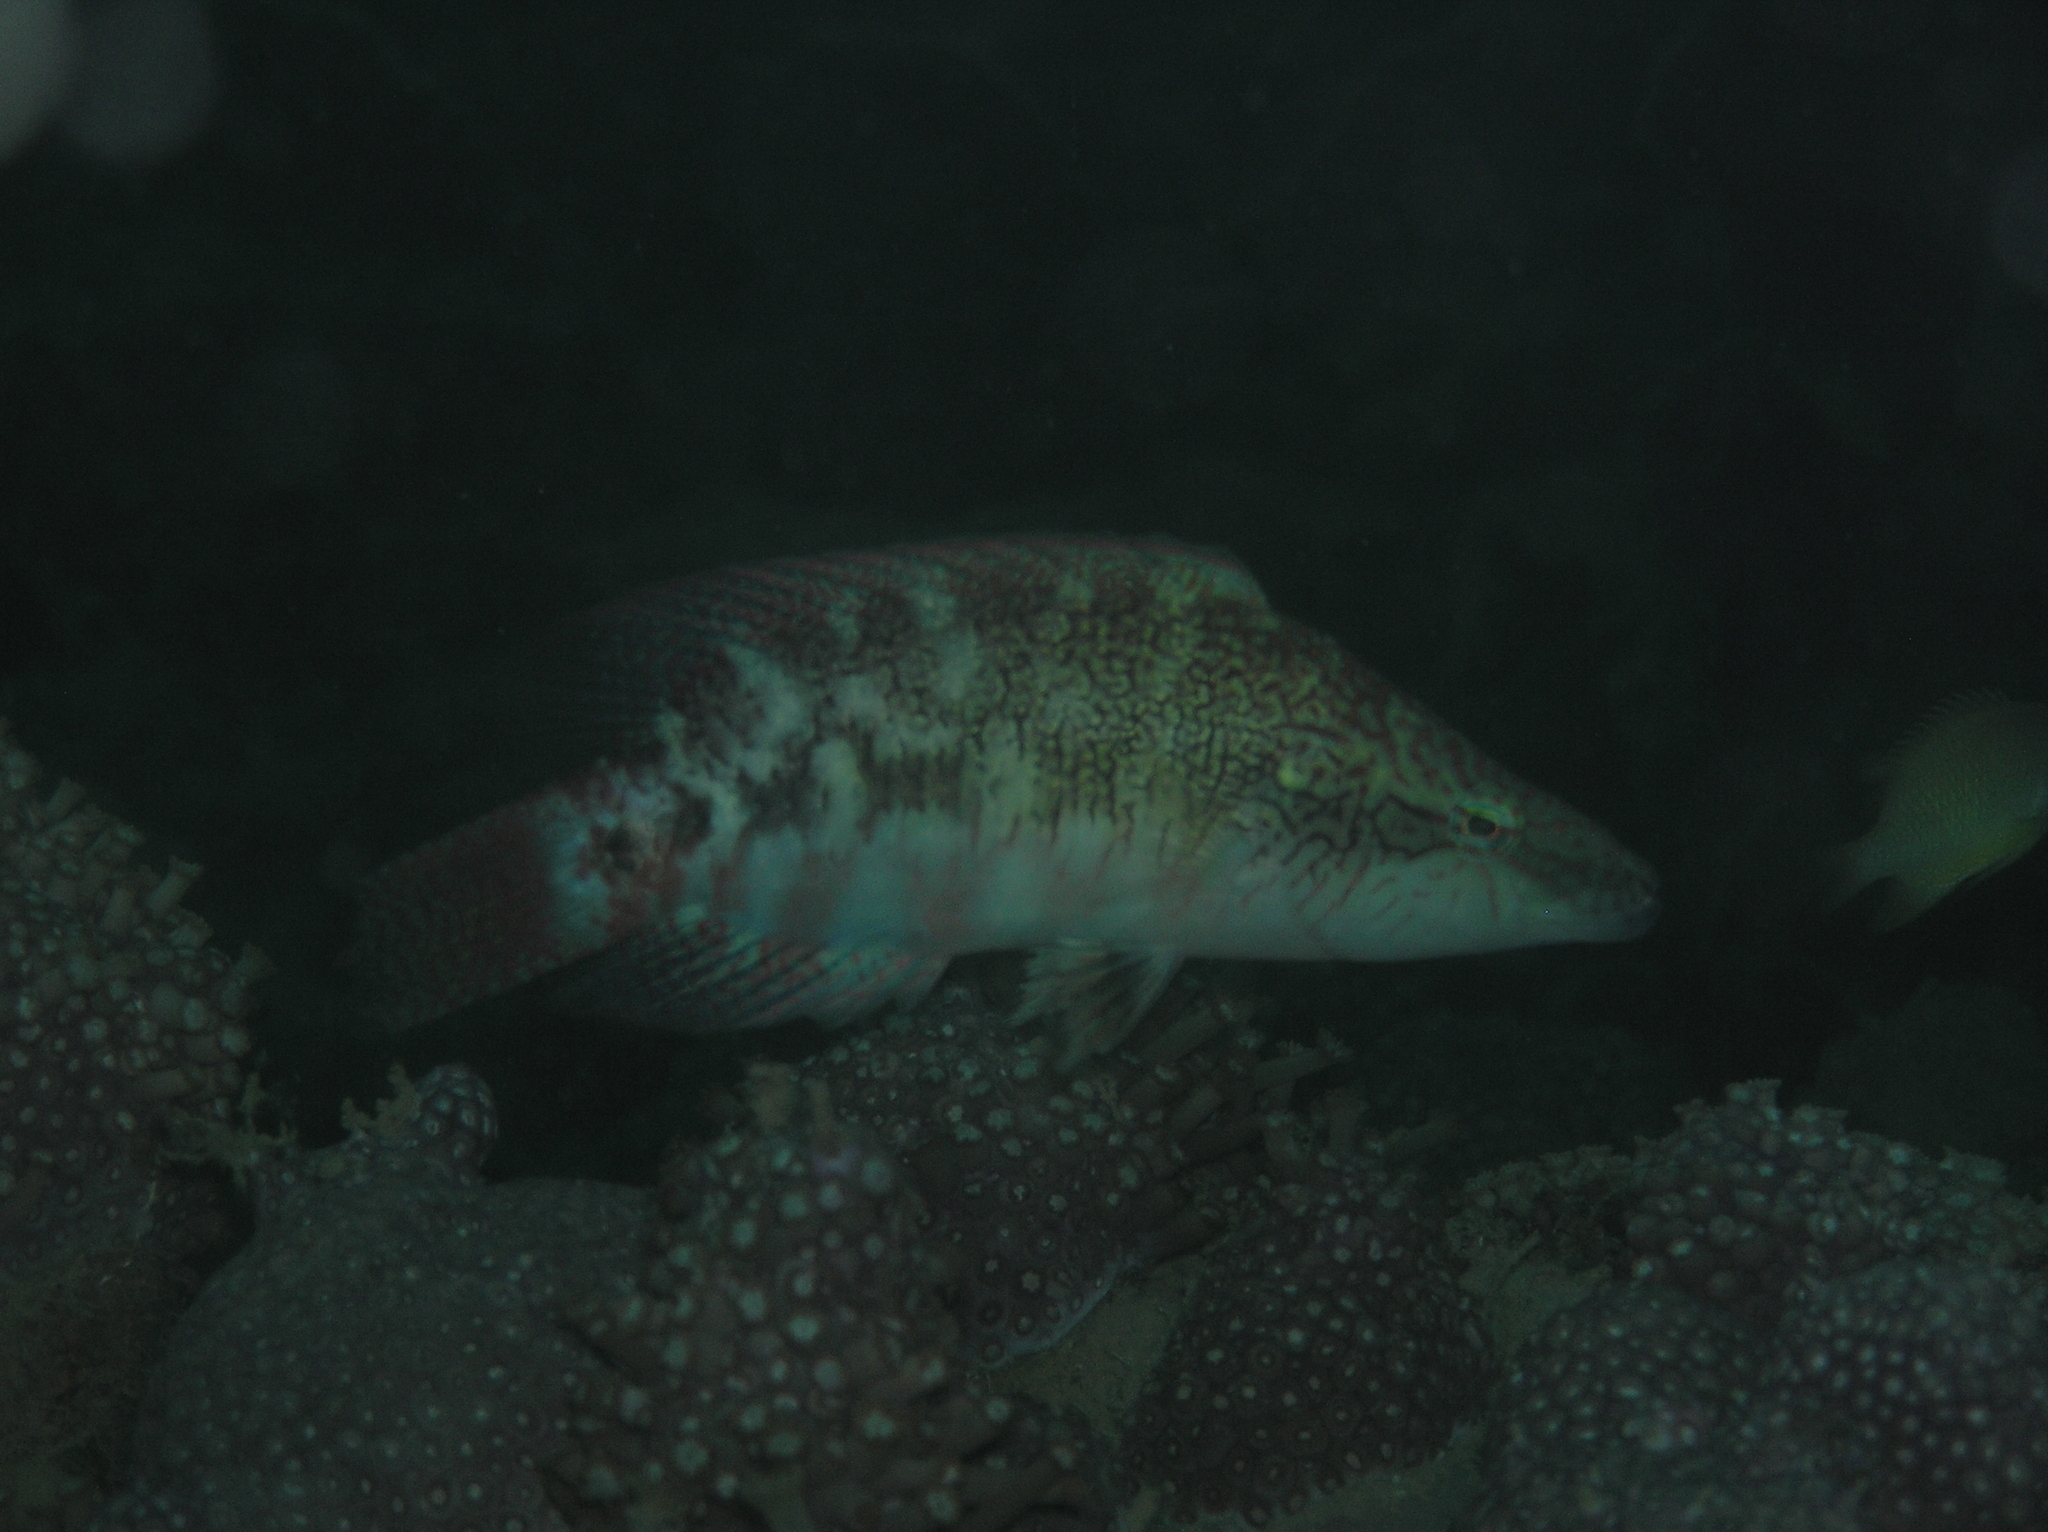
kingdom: Animalia
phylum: Chordata
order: Perciformes
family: Labridae
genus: Oxycheilinus
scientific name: Oxycheilinus celebicus
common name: Celebes maori wrasse
